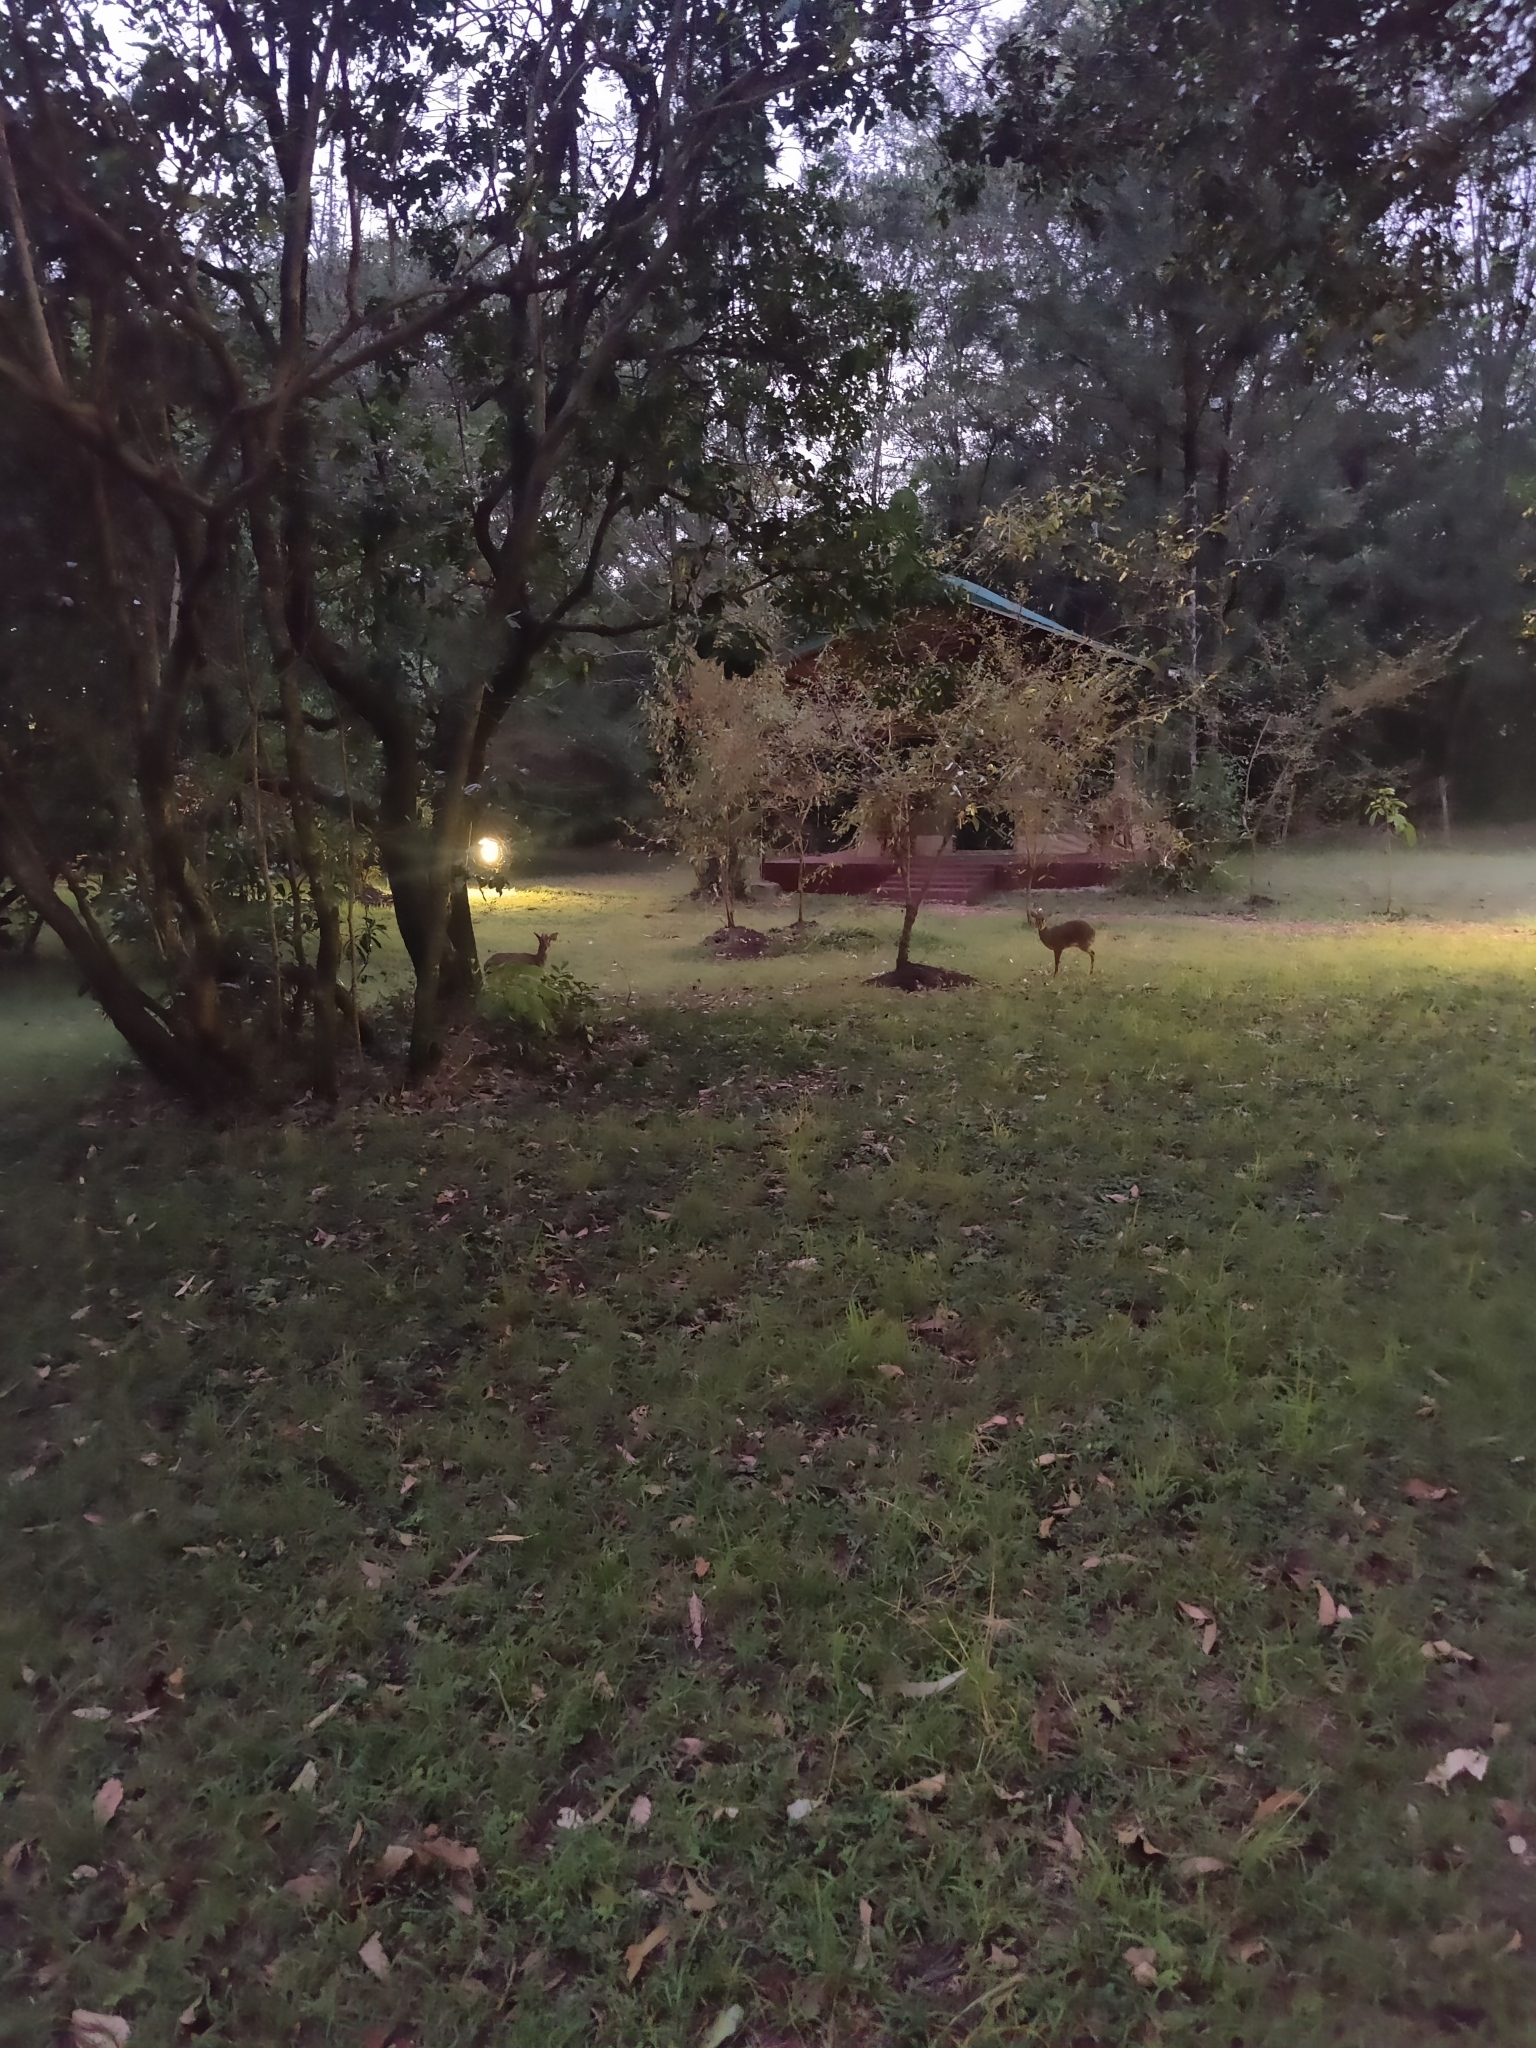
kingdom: Animalia
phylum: Chordata
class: Mammalia
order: Artiodactyla
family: Bovidae
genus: Madoqua
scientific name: Madoqua
